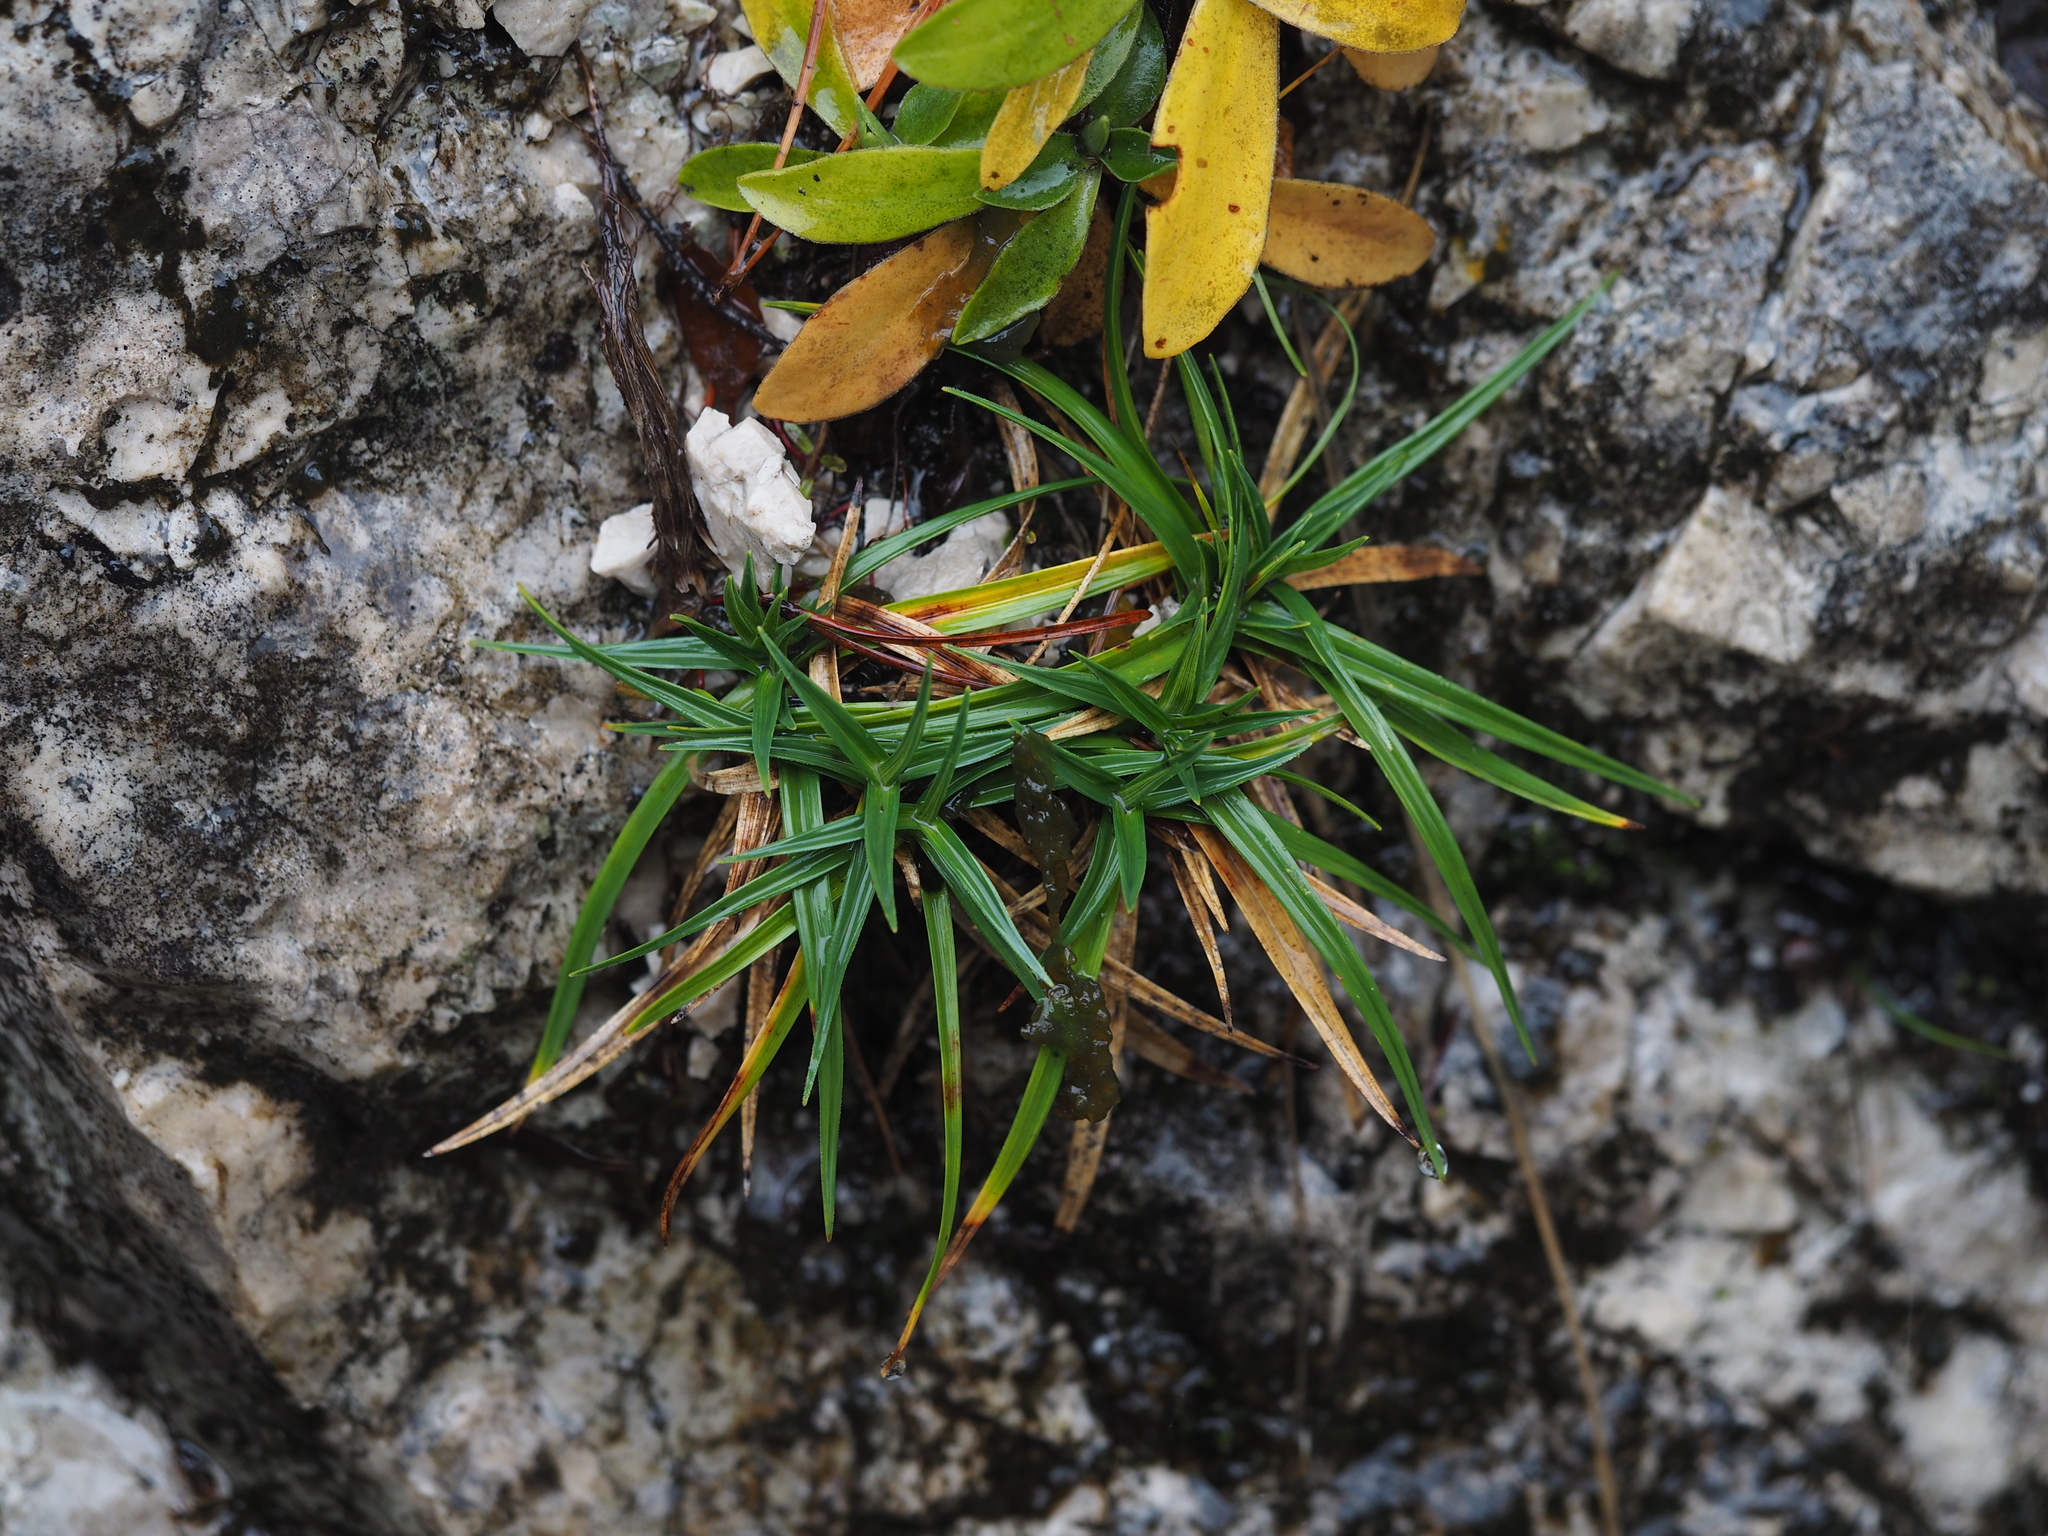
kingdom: Plantae
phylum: Tracheophyta
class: Liliopsida
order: Poales
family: Cyperaceae
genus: Carex
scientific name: Carex firma
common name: Dwarf pillow sedge
